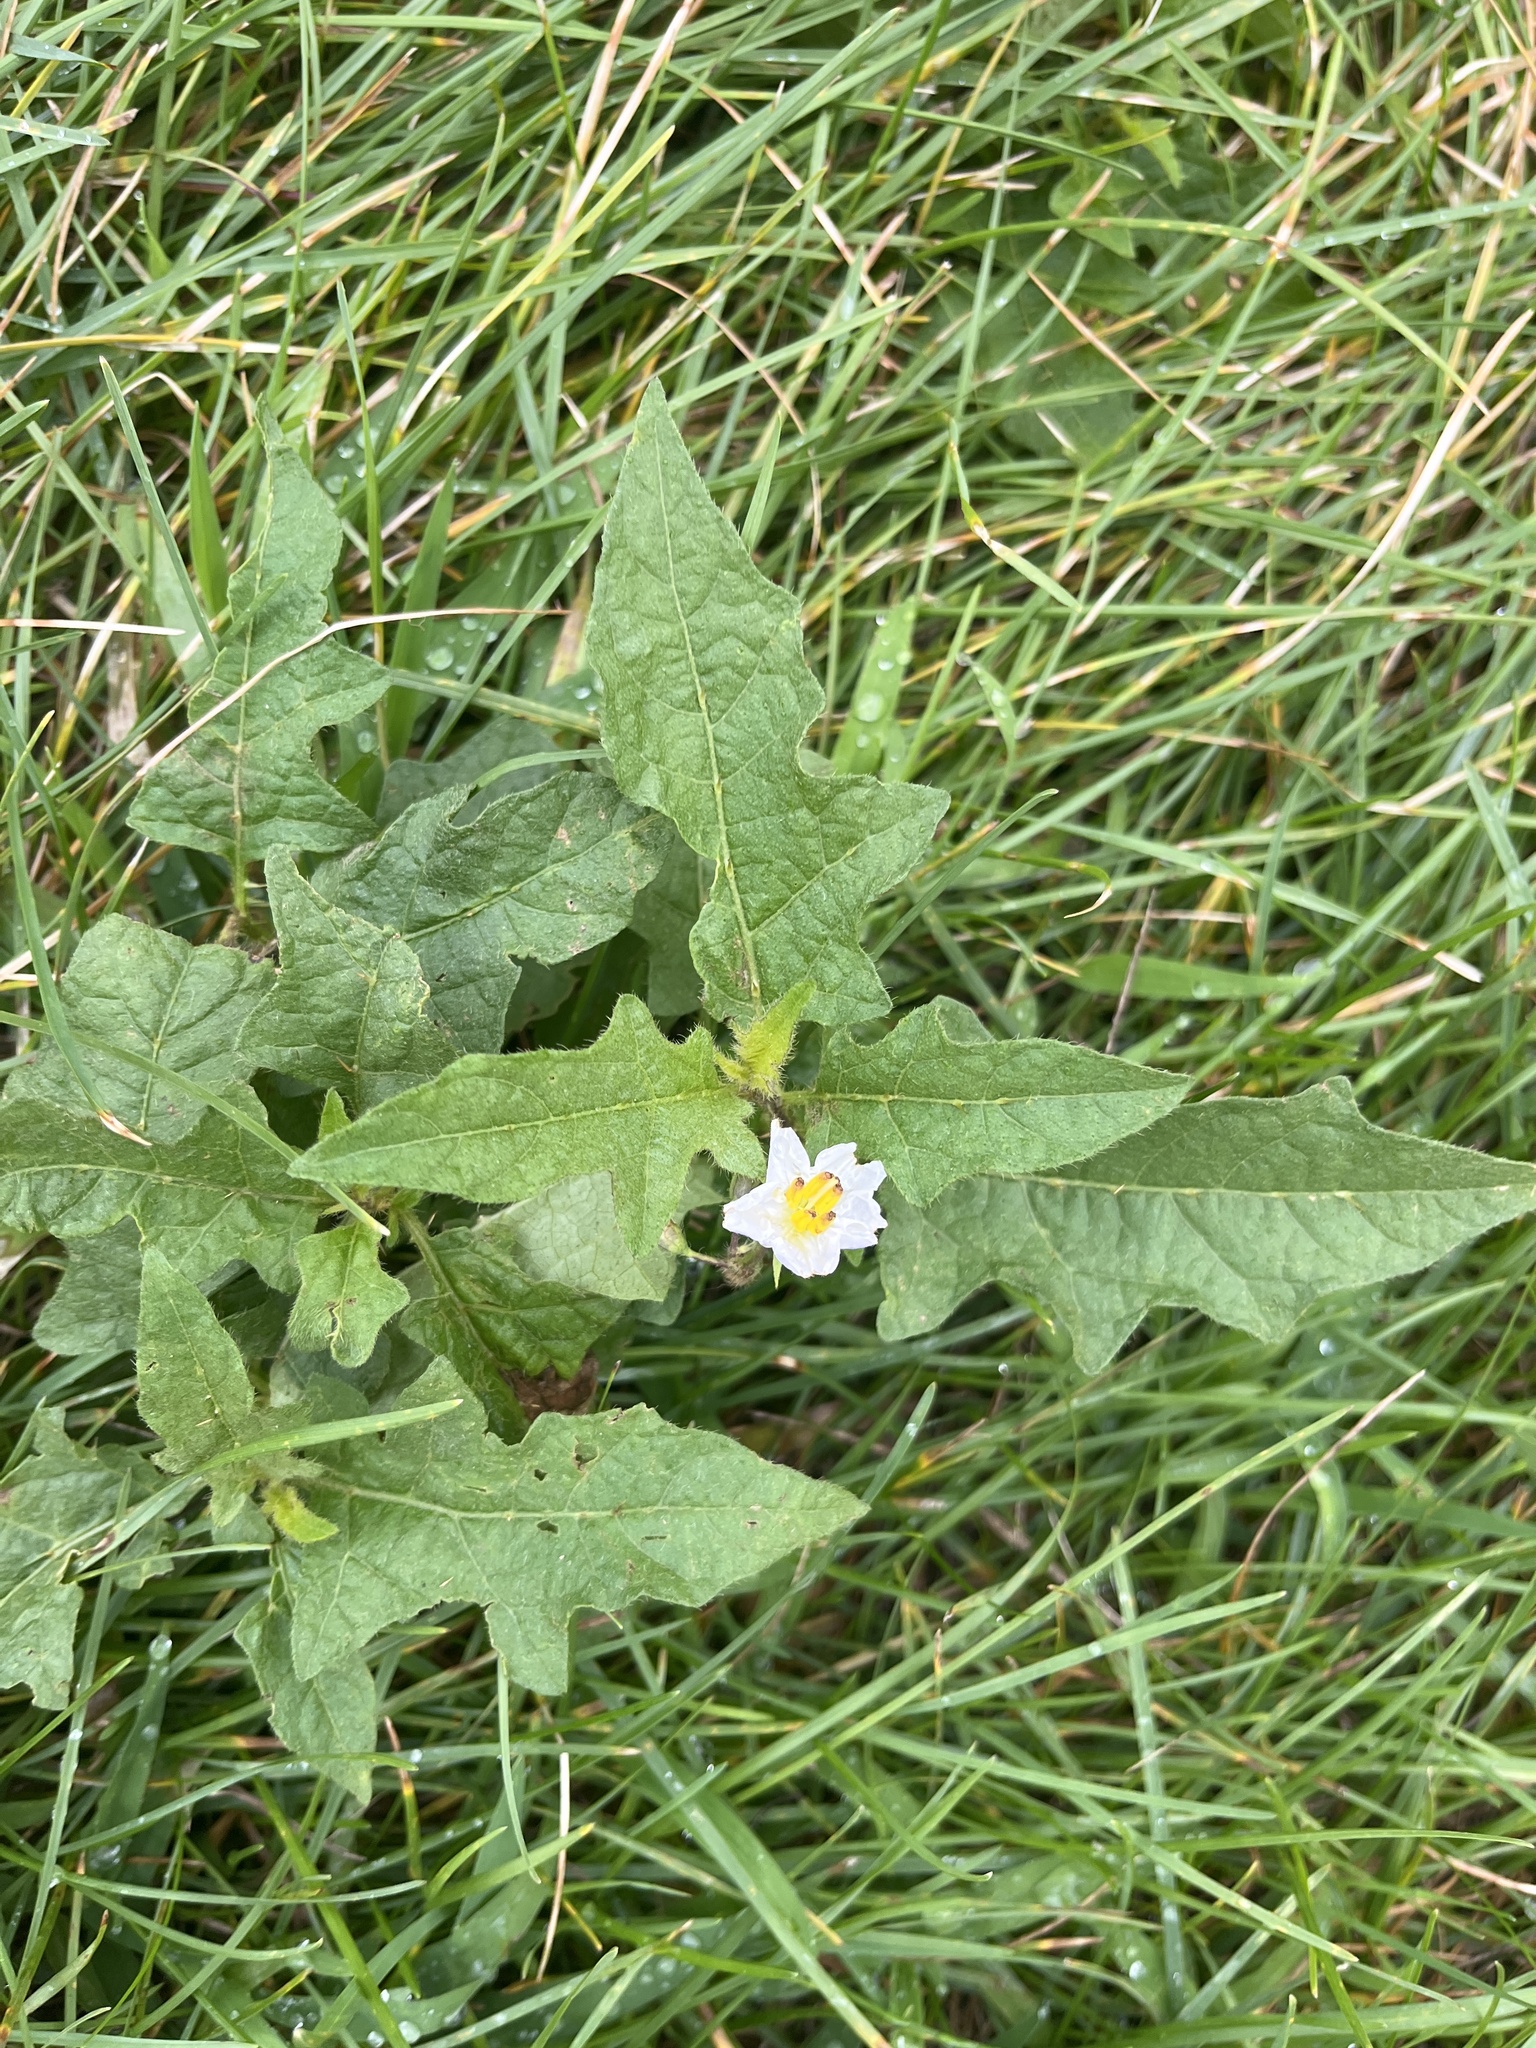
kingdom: Plantae
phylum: Tracheophyta
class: Magnoliopsida
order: Solanales
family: Solanaceae
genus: Solanum
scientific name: Solanum carolinense
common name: Horse-nettle
